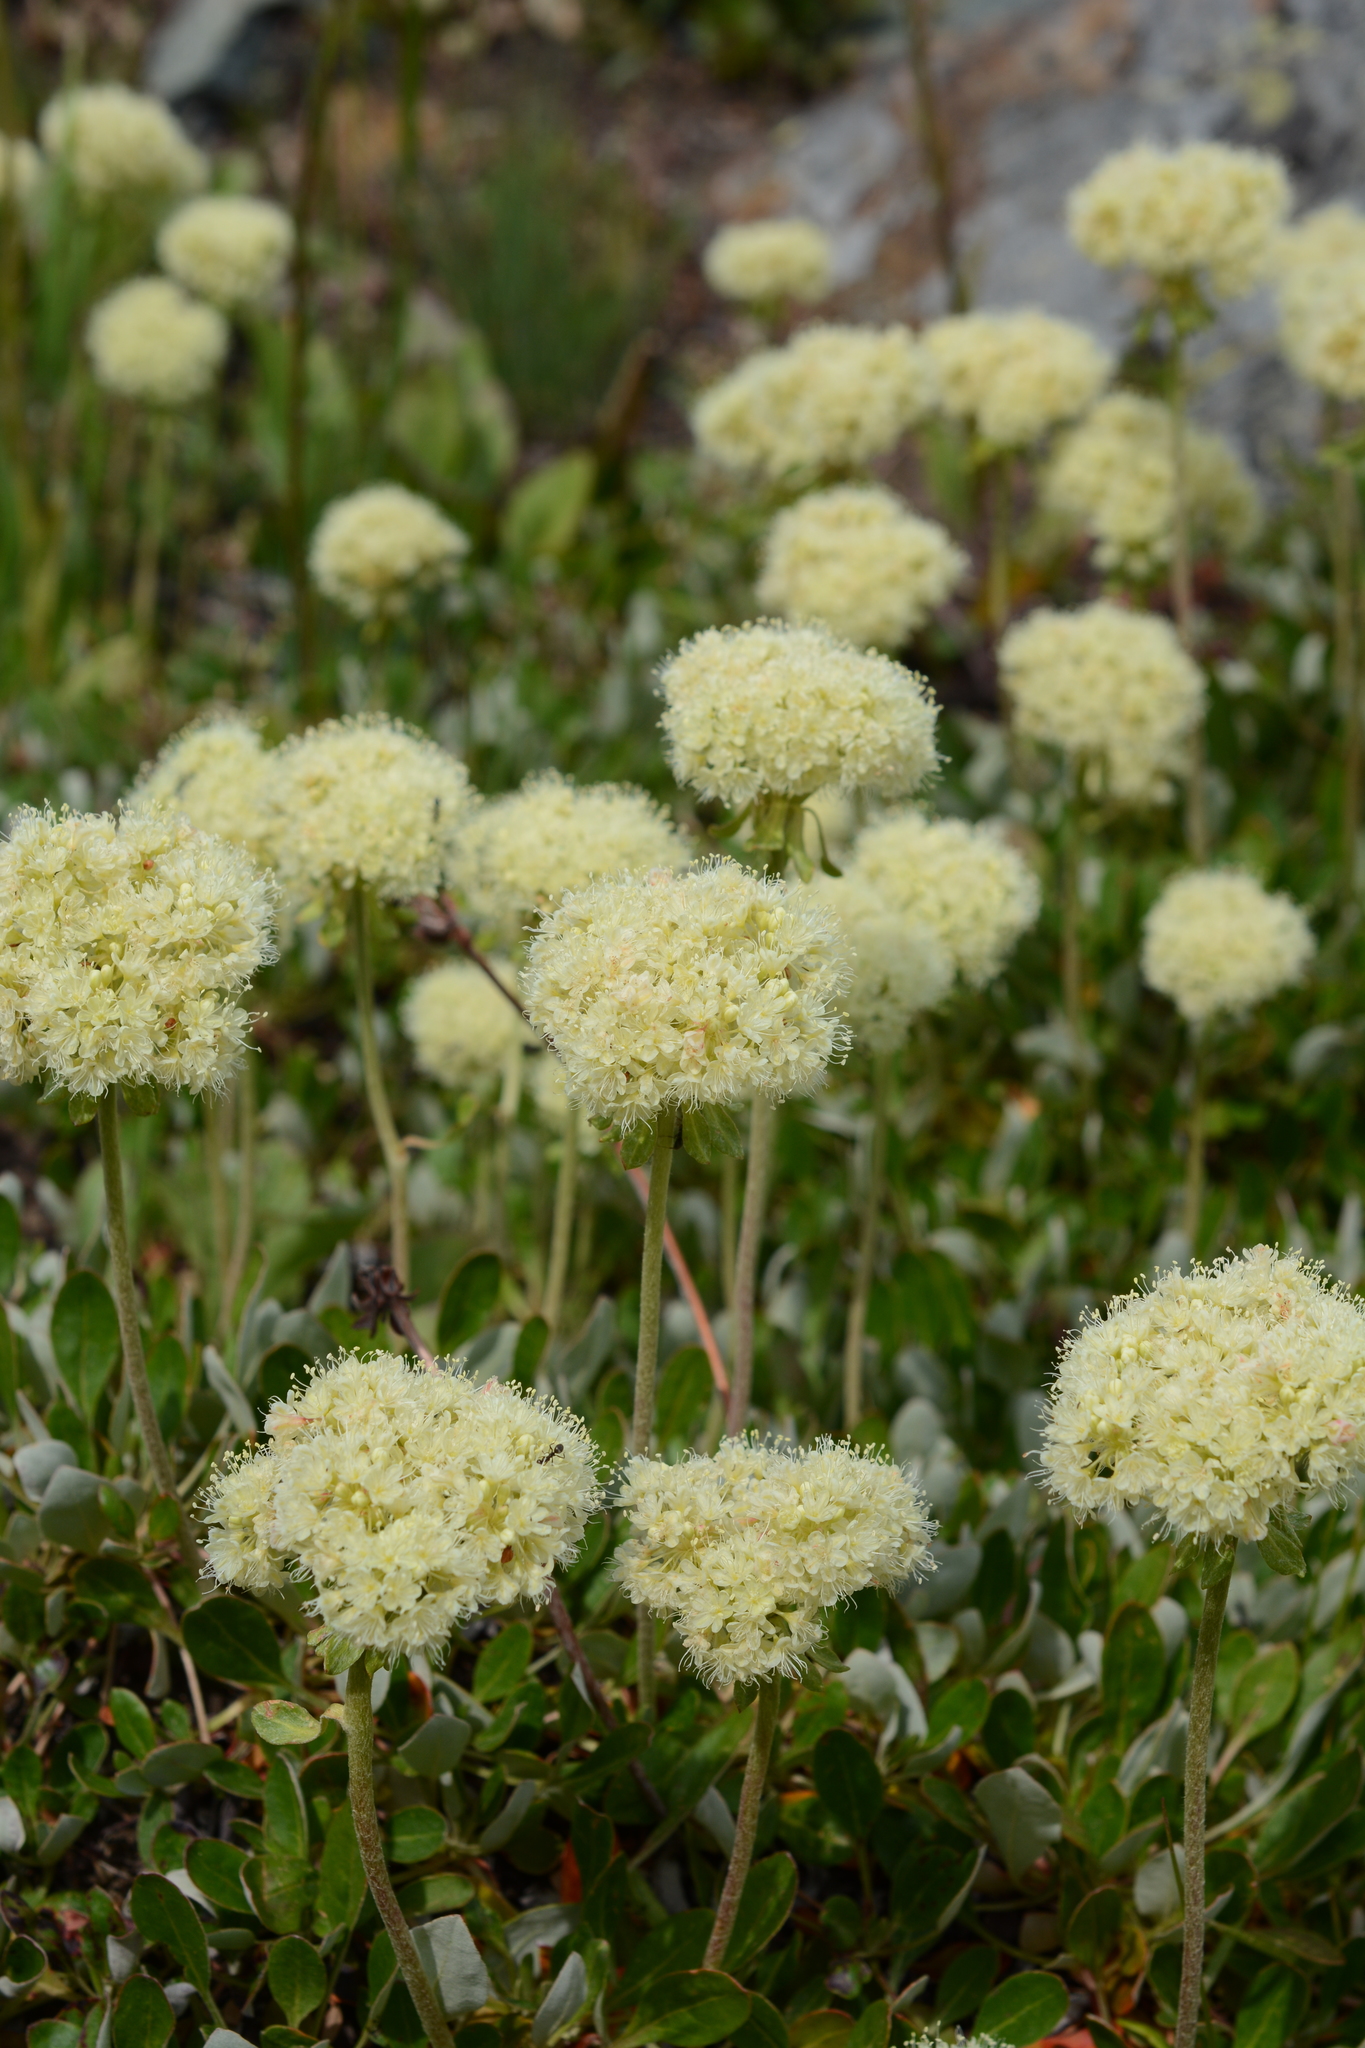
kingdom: Plantae
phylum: Tracheophyta
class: Magnoliopsida
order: Caryophyllales
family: Polygonaceae
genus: Eriogonum
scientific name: Eriogonum umbellatum
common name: Sulfur-buckwheat
